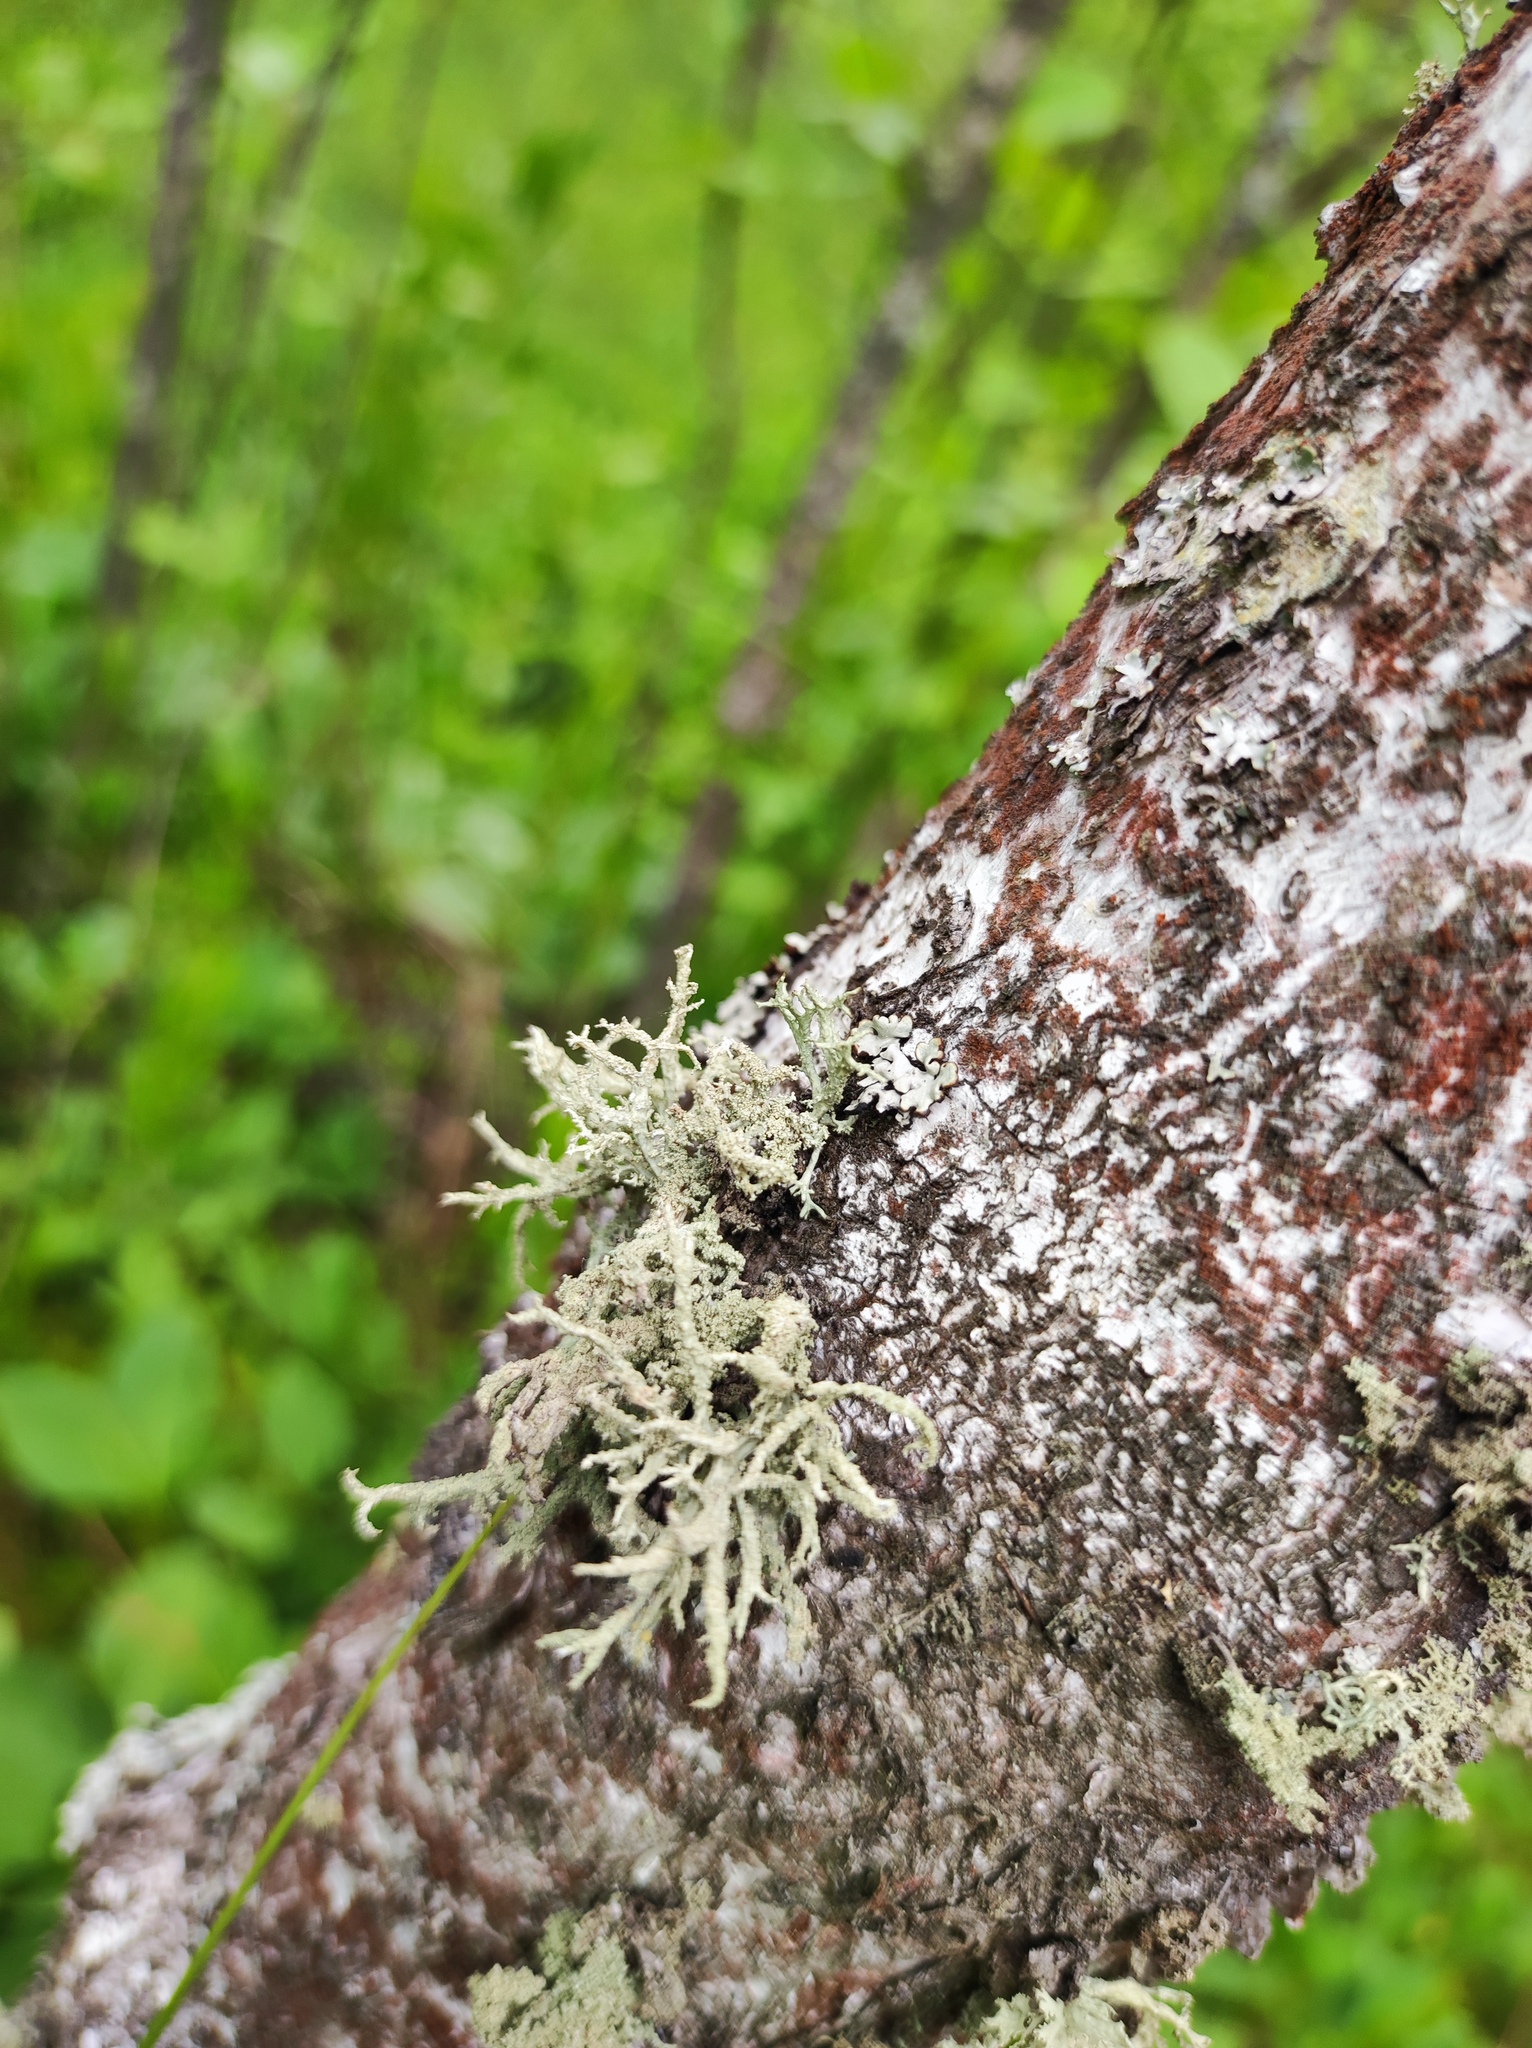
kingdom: Fungi
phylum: Ascomycota
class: Lecanoromycetes
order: Lecanorales
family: Parmeliaceae
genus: Evernia
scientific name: Evernia mesomorpha
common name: Boreal oak moss lichen
